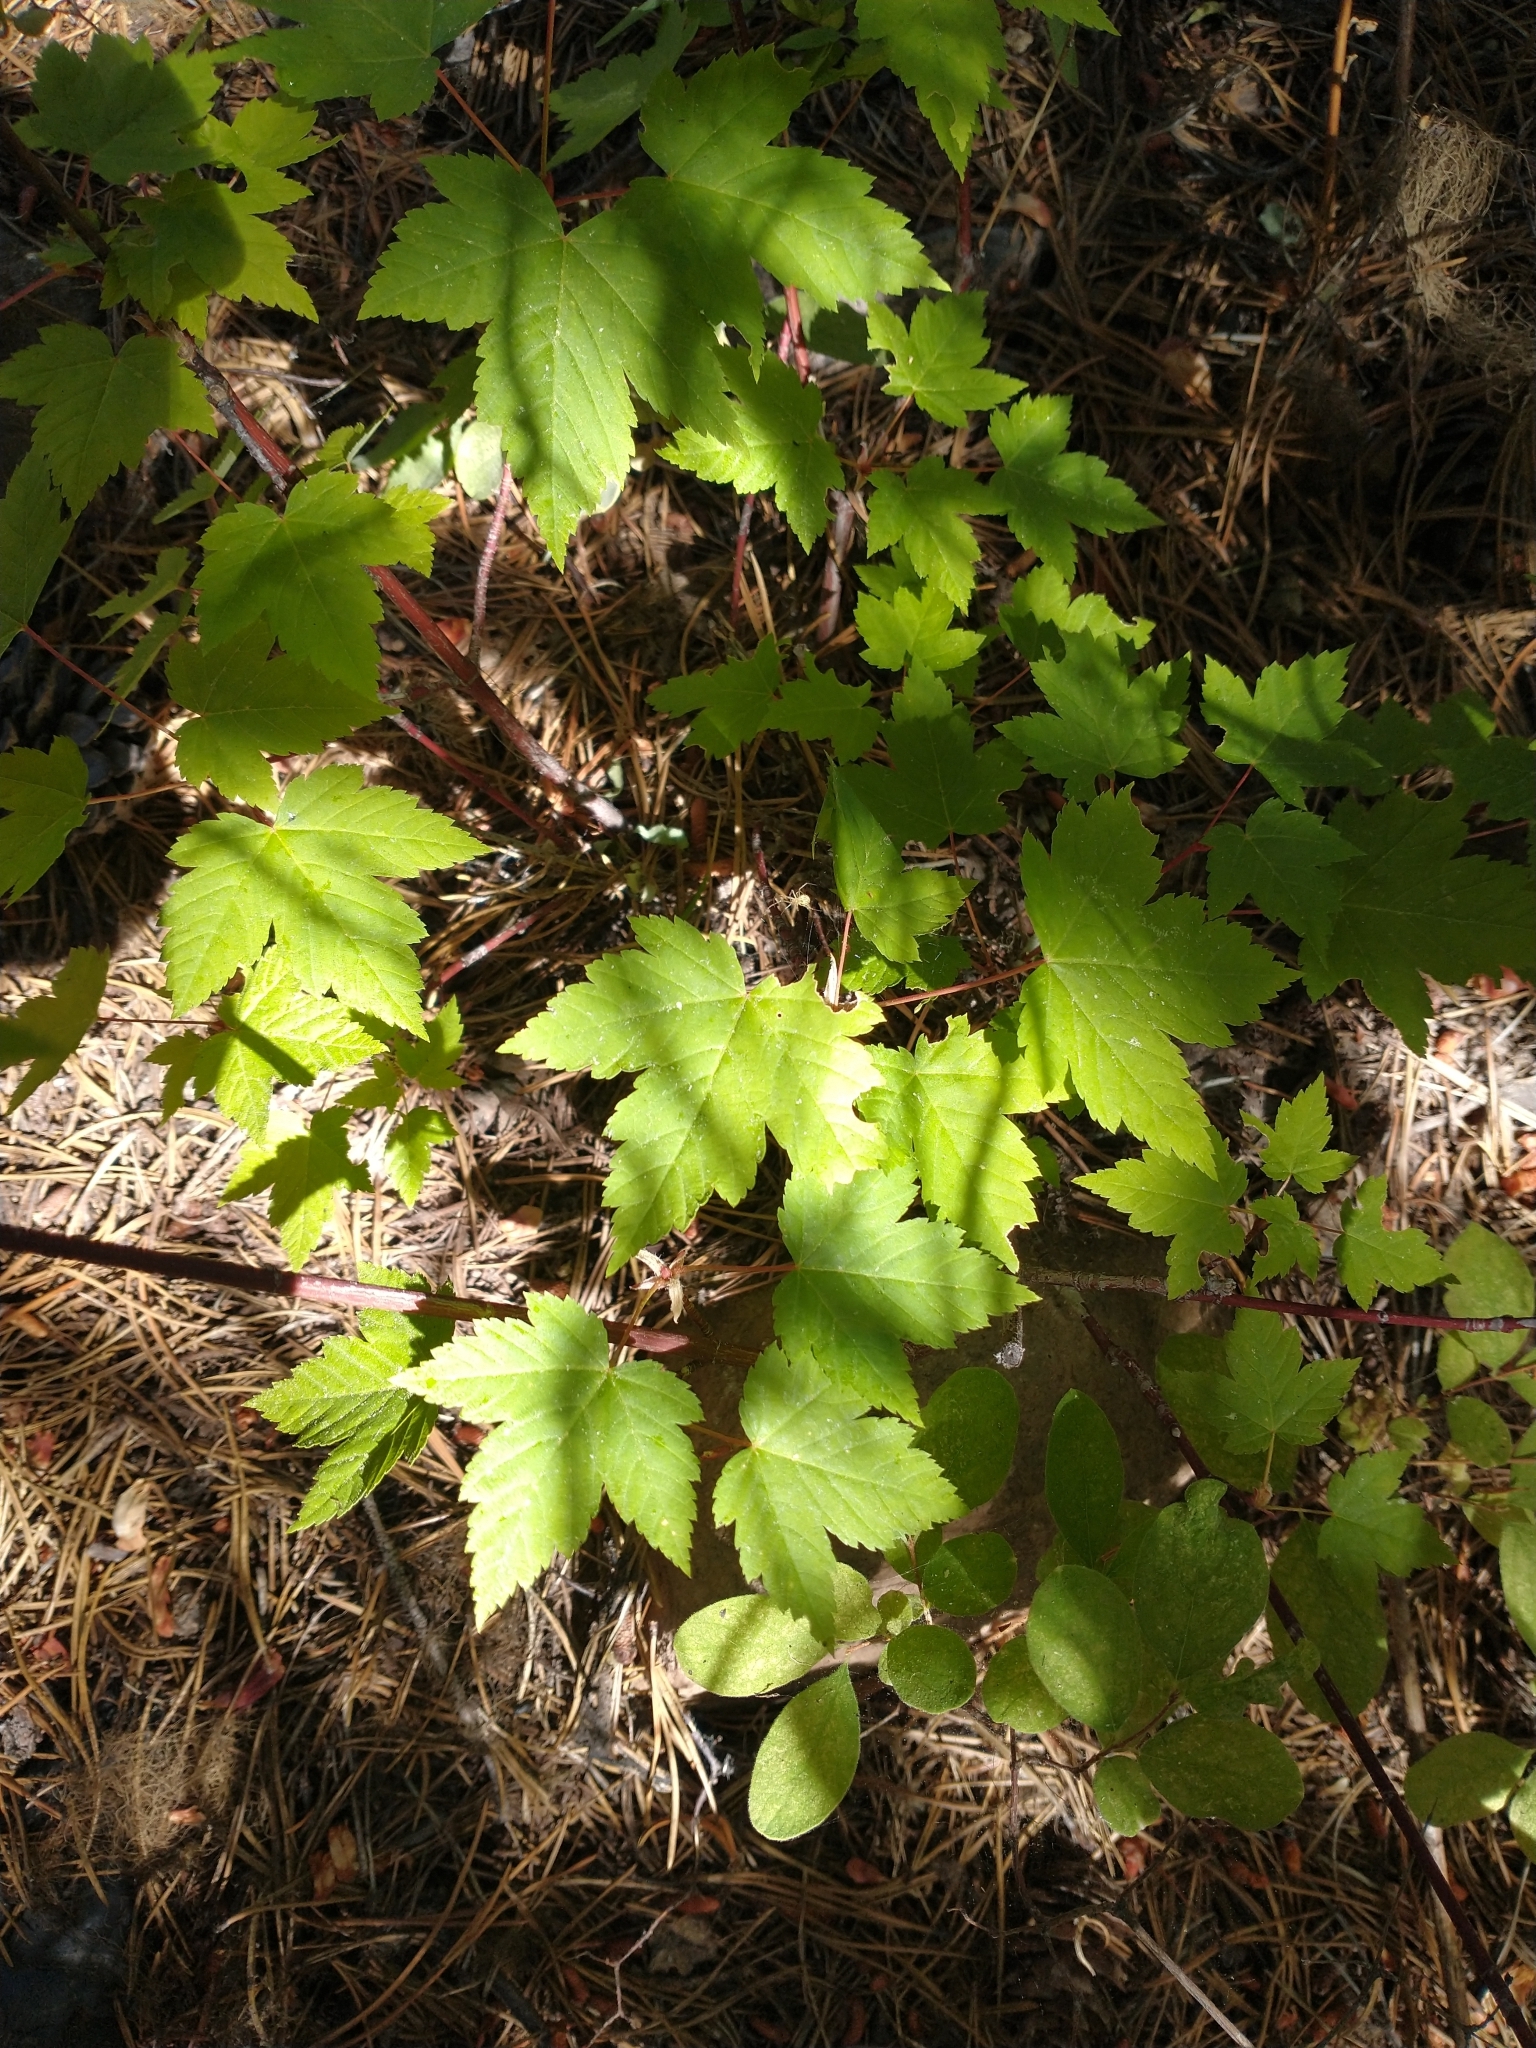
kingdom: Plantae
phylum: Tracheophyta
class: Magnoliopsida
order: Sapindales
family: Sapindaceae
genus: Acer
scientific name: Acer glabrum
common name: Rocky mountain maple
